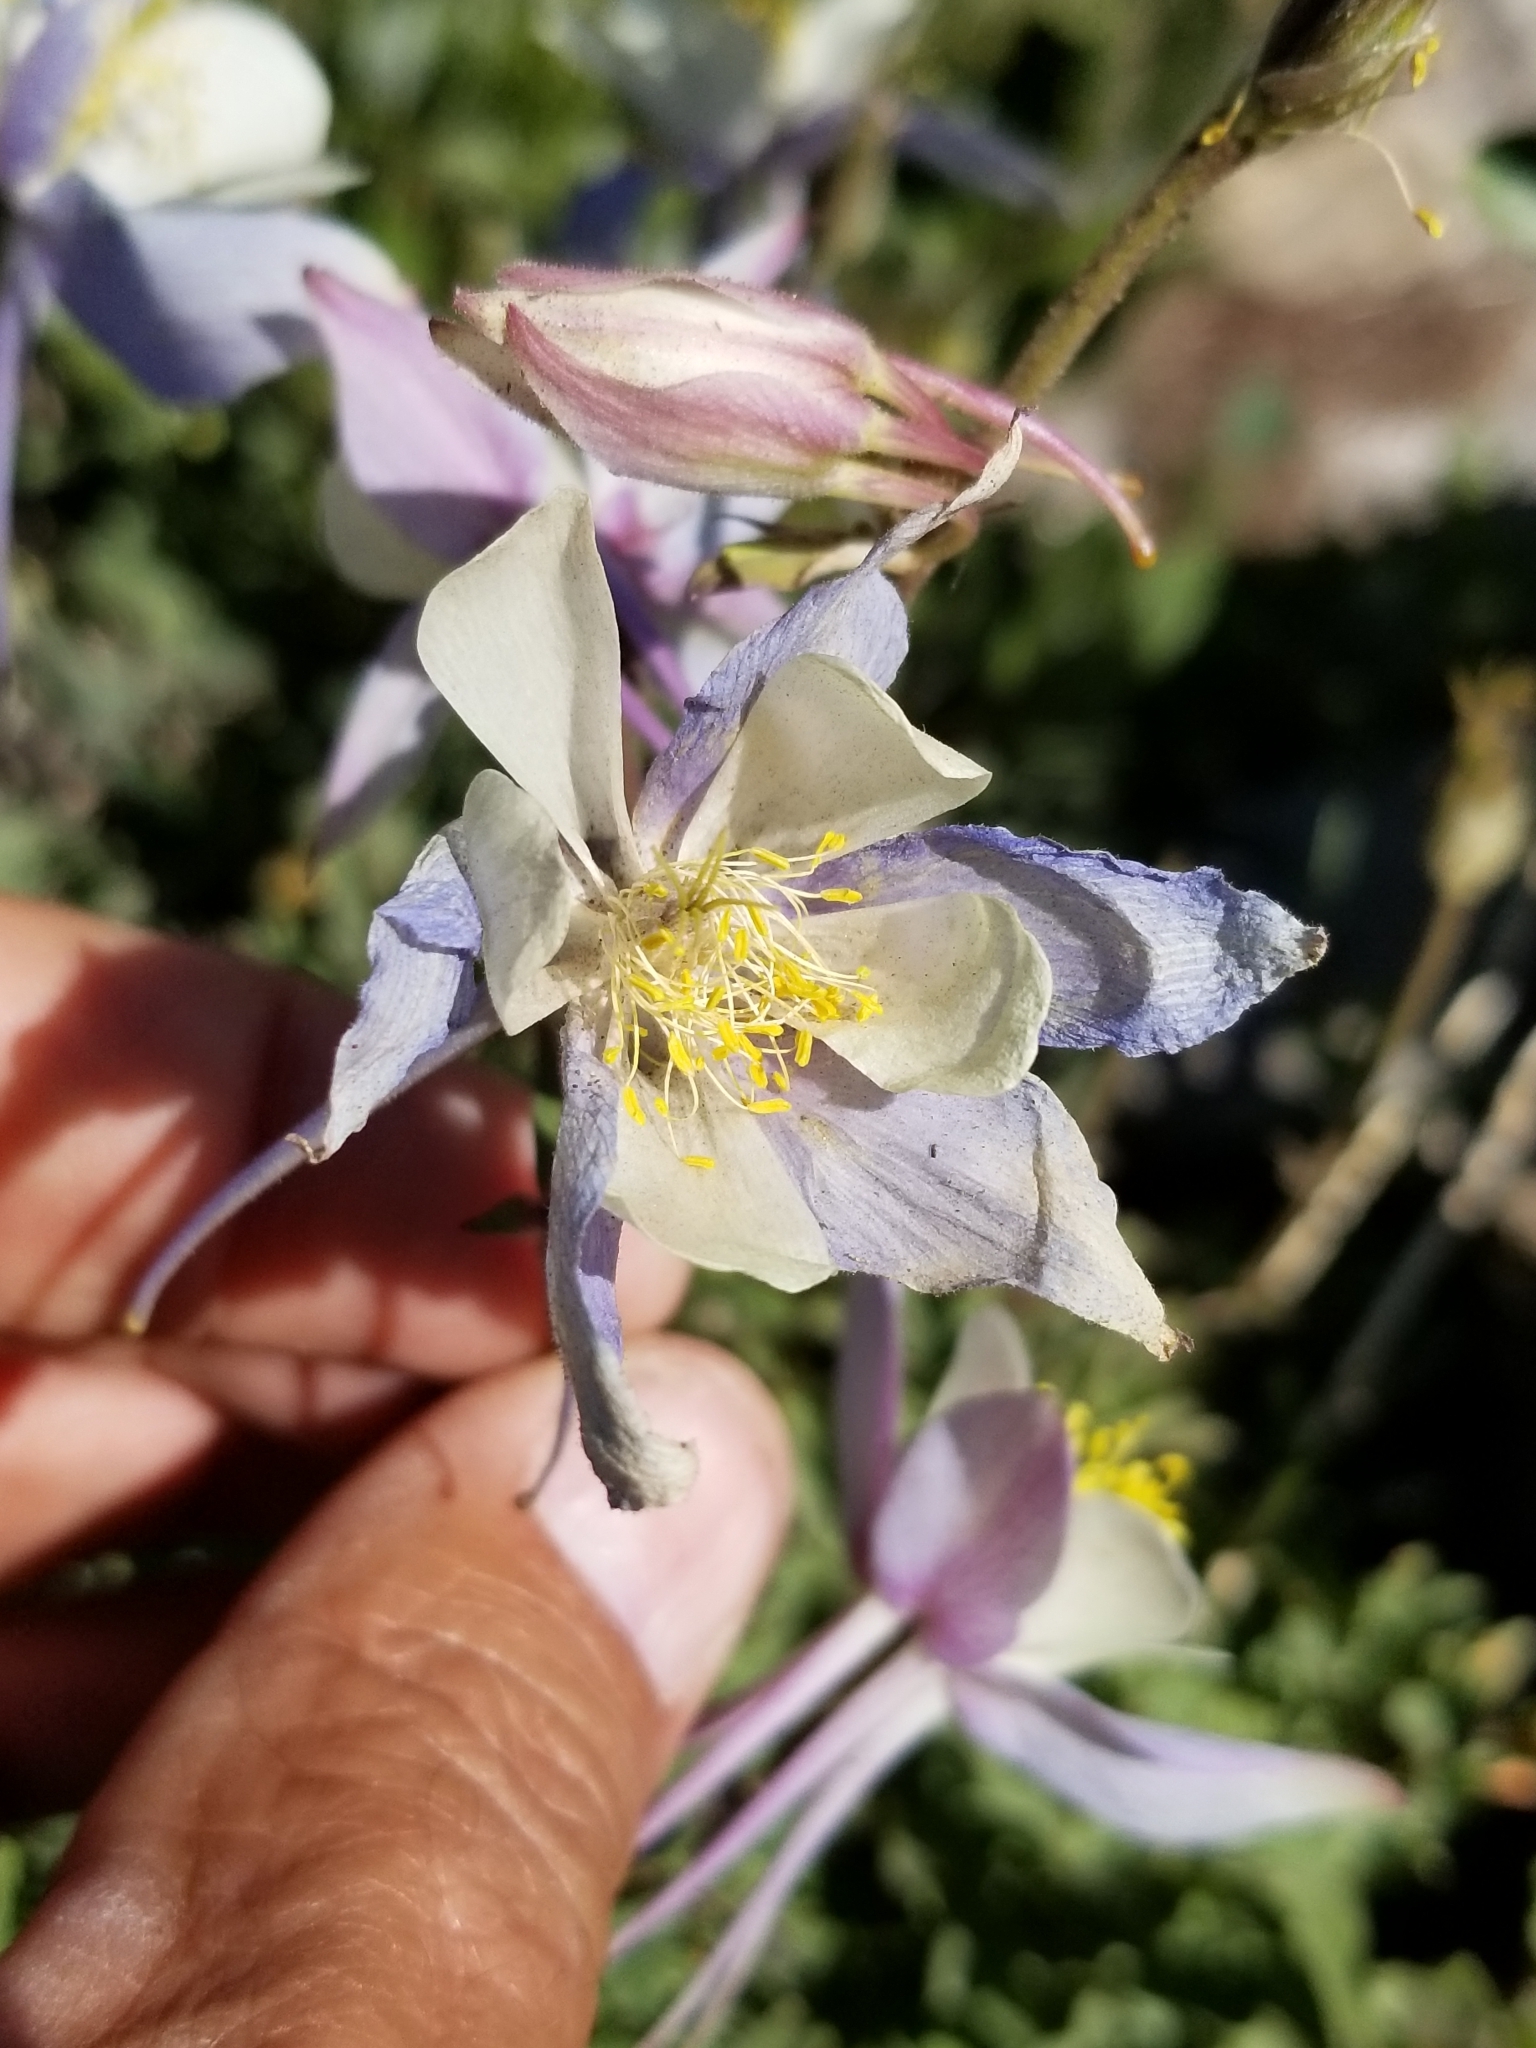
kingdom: Plantae
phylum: Tracheophyta
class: Magnoliopsida
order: Ranunculales
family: Ranunculaceae
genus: Aquilegia
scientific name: Aquilegia coerulea
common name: Rocky mountain columbine
